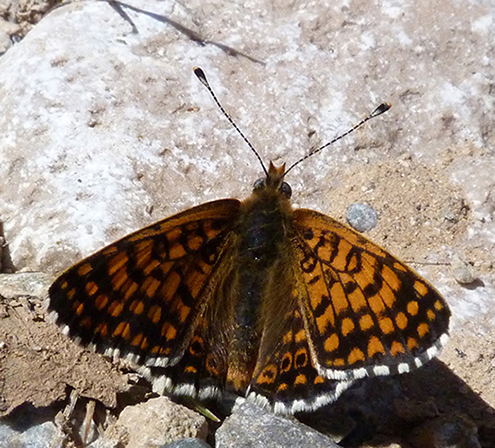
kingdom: Animalia
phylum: Arthropoda
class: Insecta
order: Lepidoptera
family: Nymphalidae
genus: Melitaea
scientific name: Melitaea cinxia
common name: Glanville fritillary
